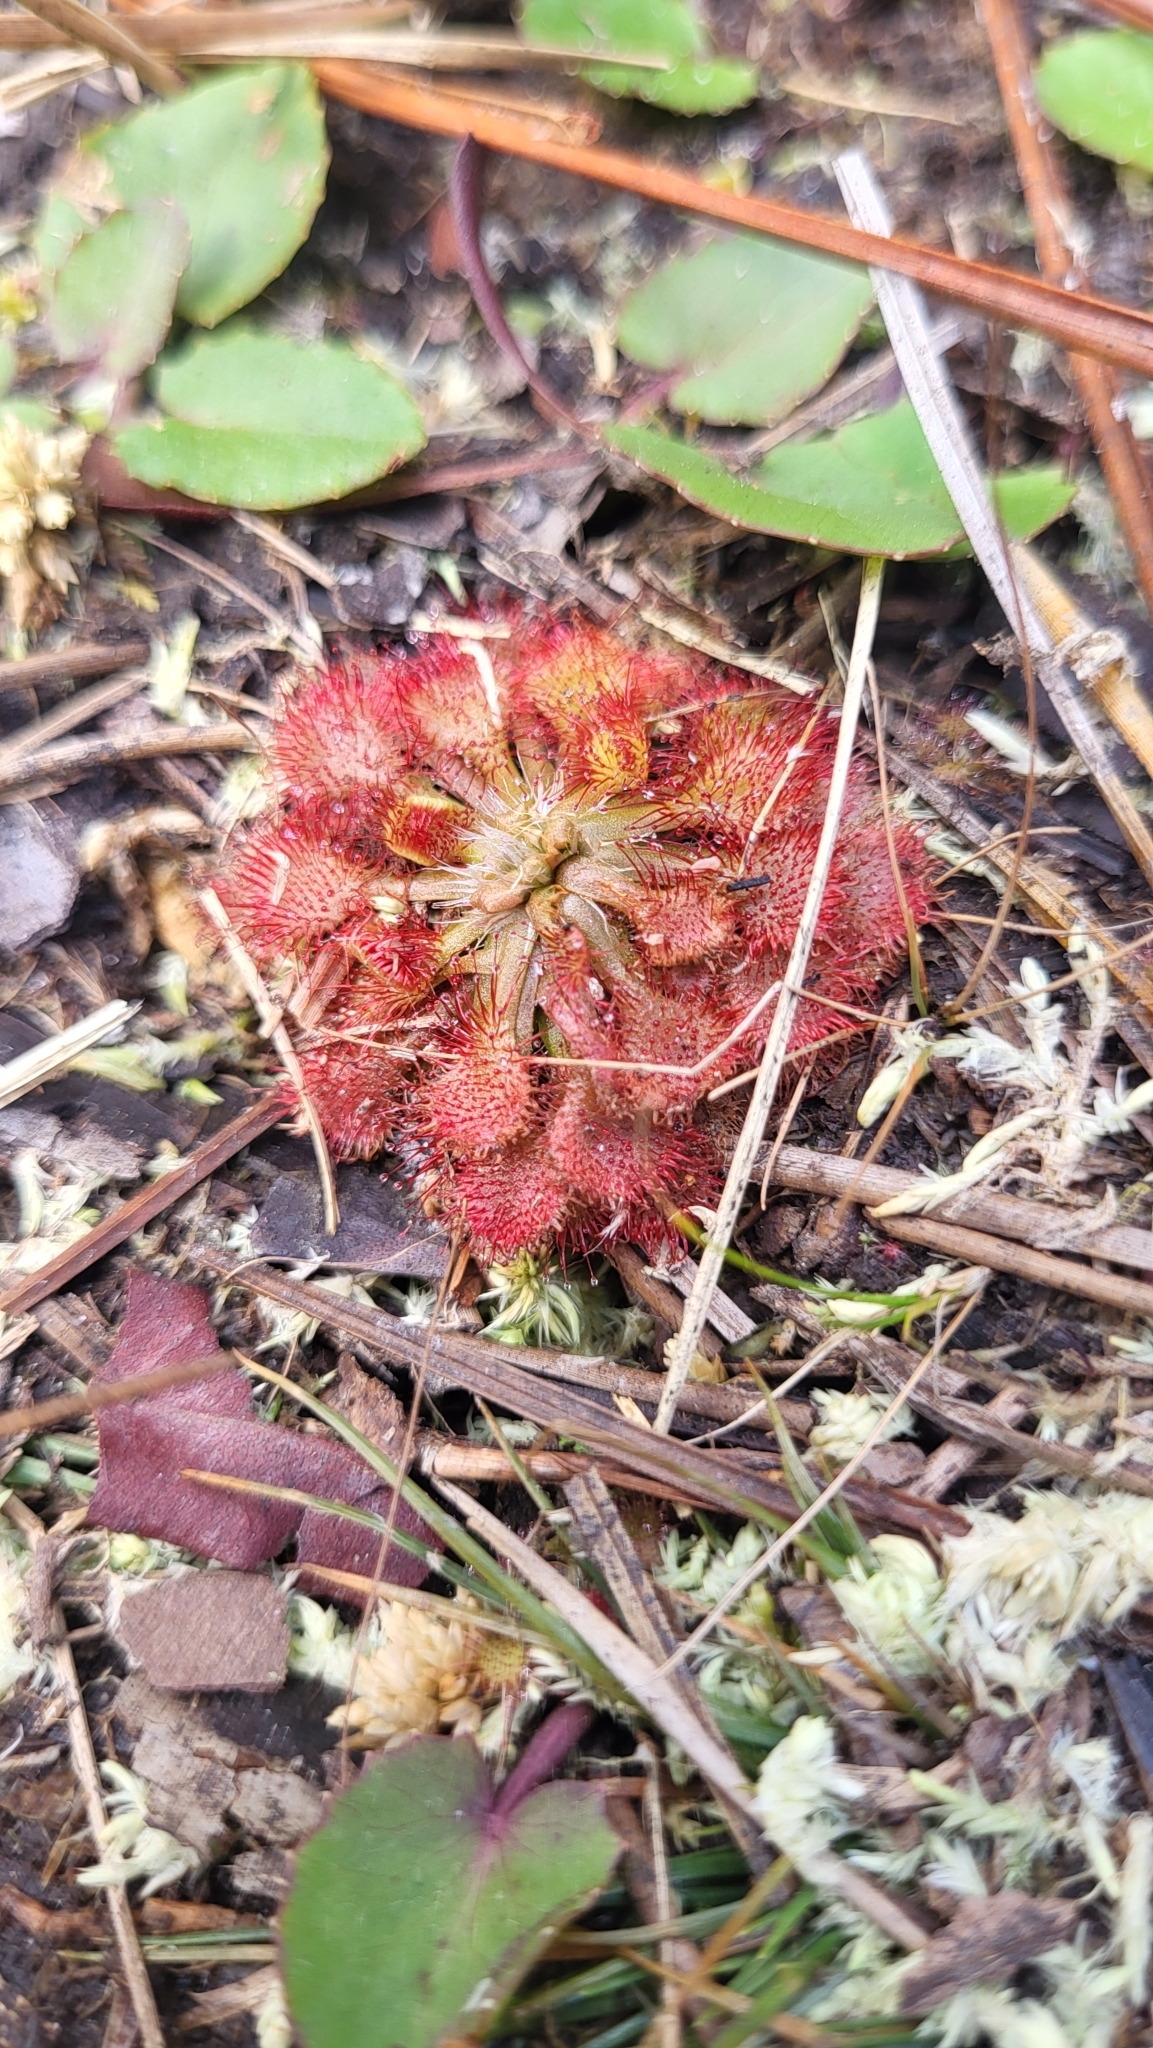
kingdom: Plantae
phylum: Tracheophyta
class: Magnoliopsida
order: Caryophyllales
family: Droseraceae
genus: Drosera
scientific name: Drosera capillaris
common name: Pink sundew
